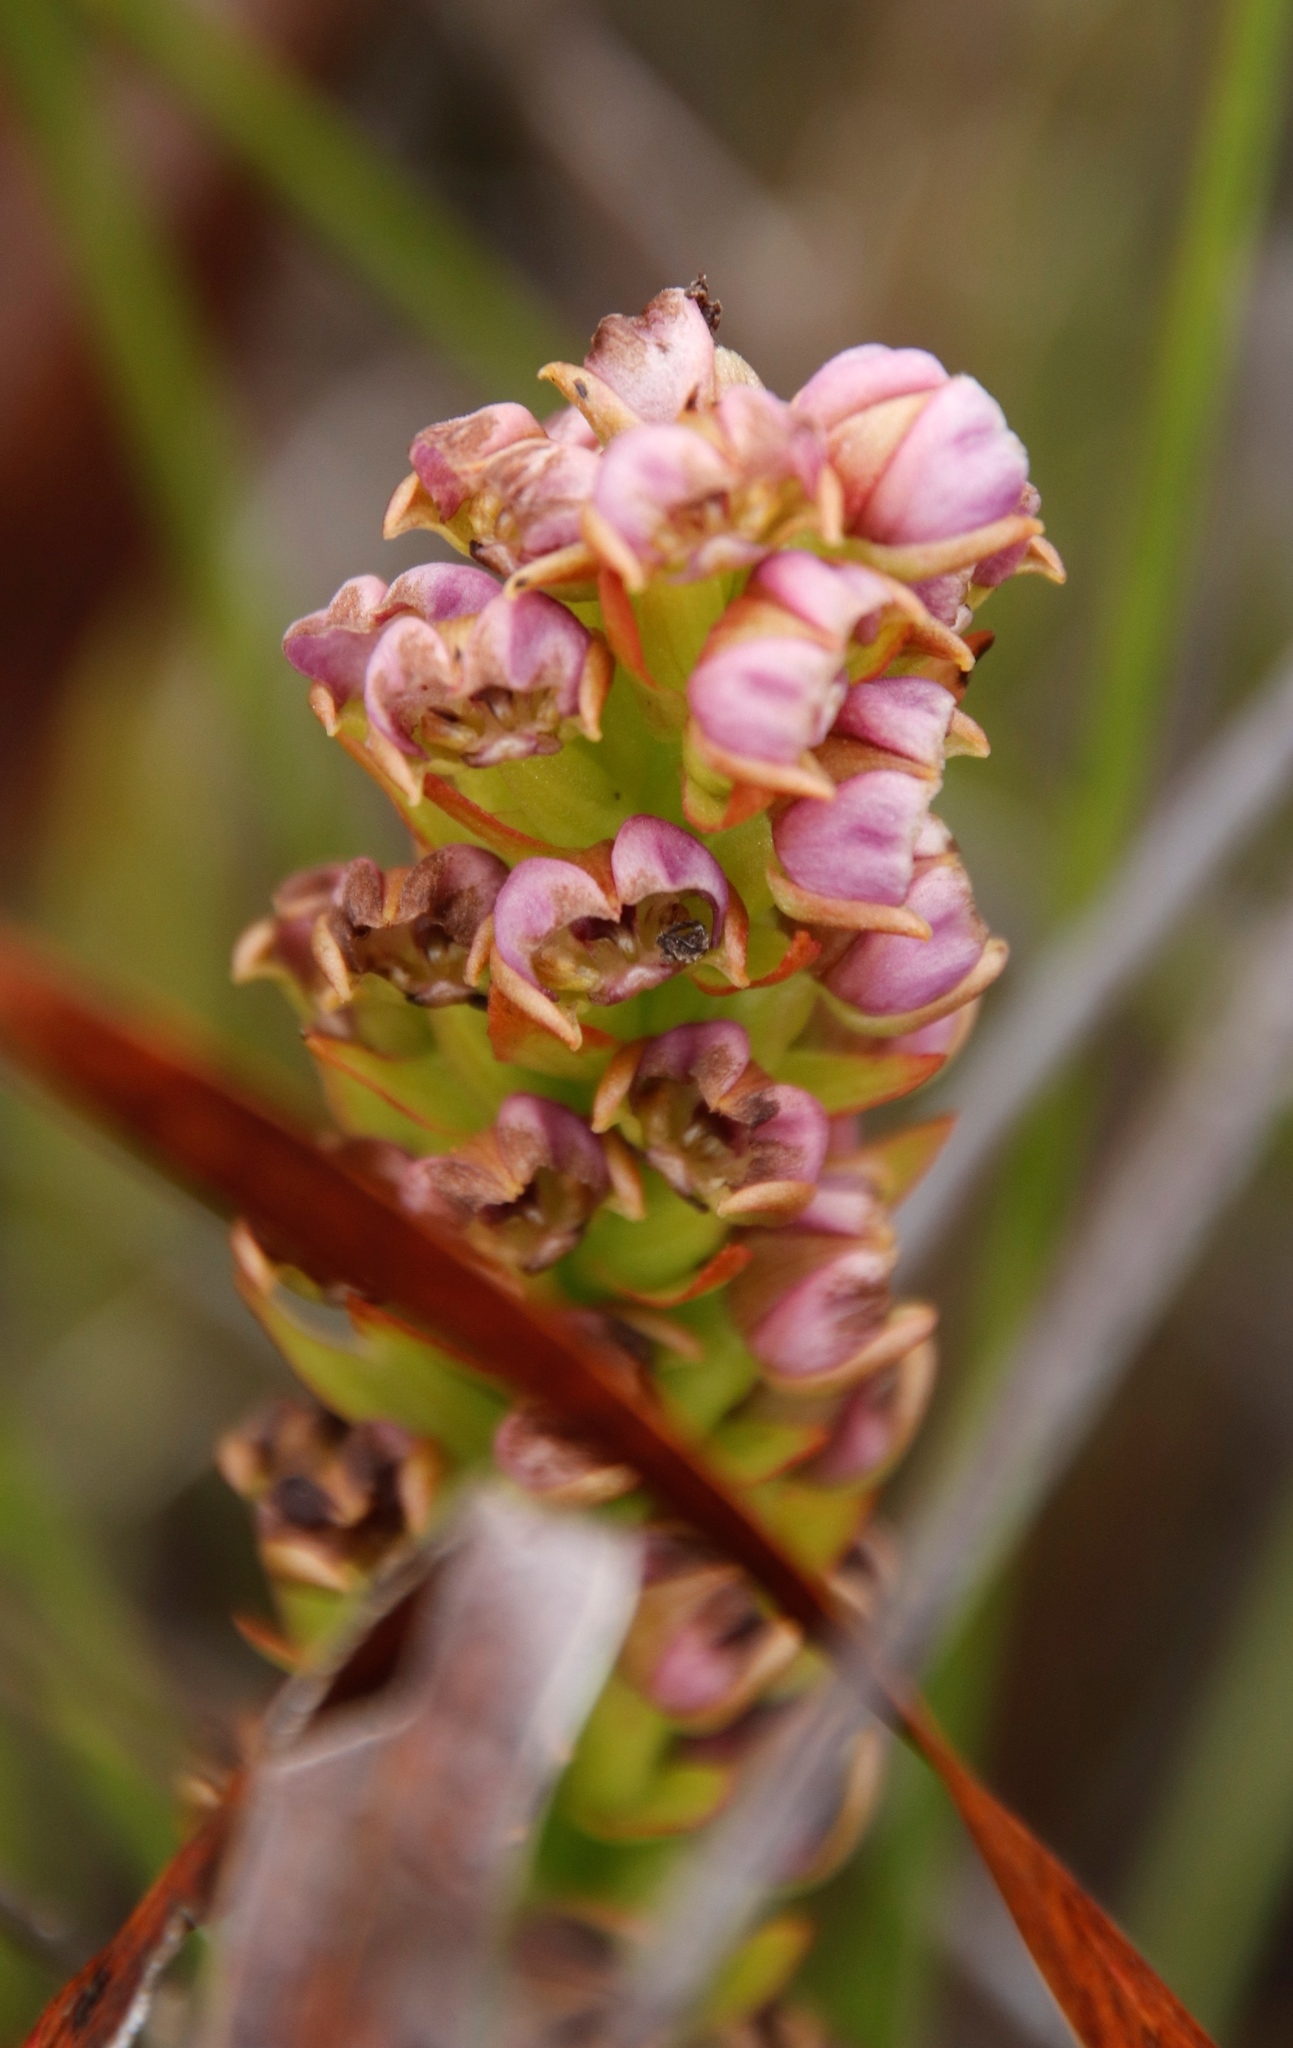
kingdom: Plantae
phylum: Tracheophyta
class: Liliopsida
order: Asparagales
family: Orchidaceae
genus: Evotella
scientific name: Evotella carnosa
